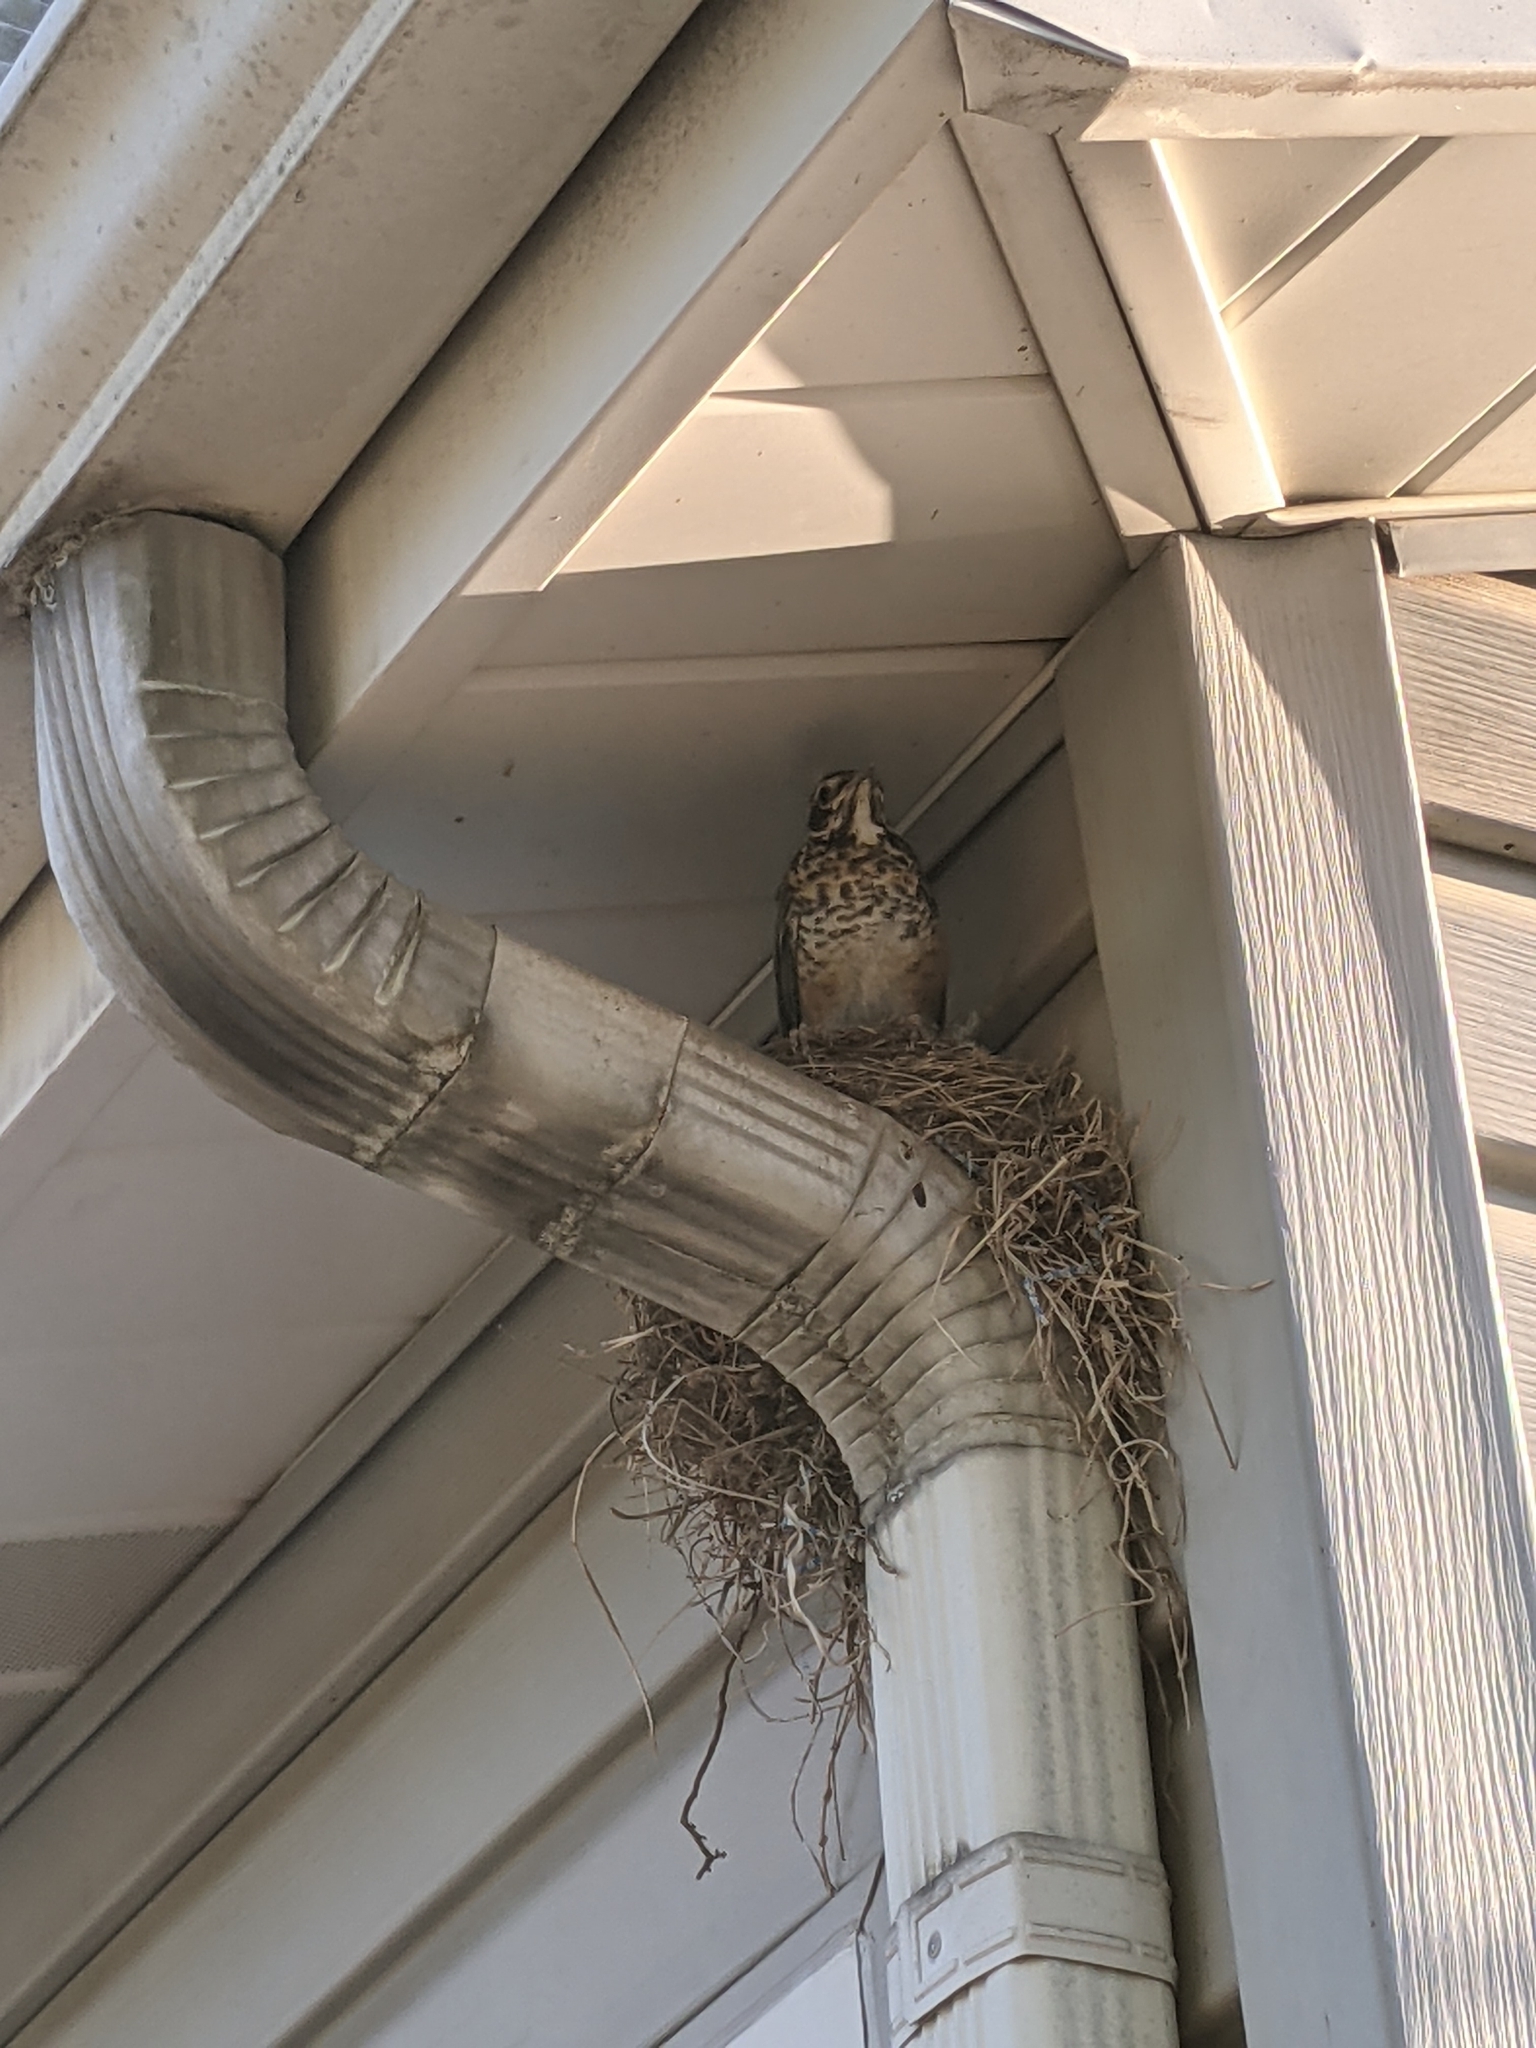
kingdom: Animalia
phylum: Chordata
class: Aves
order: Passeriformes
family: Turdidae
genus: Turdus
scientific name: Turdus migratorius
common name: American robin
